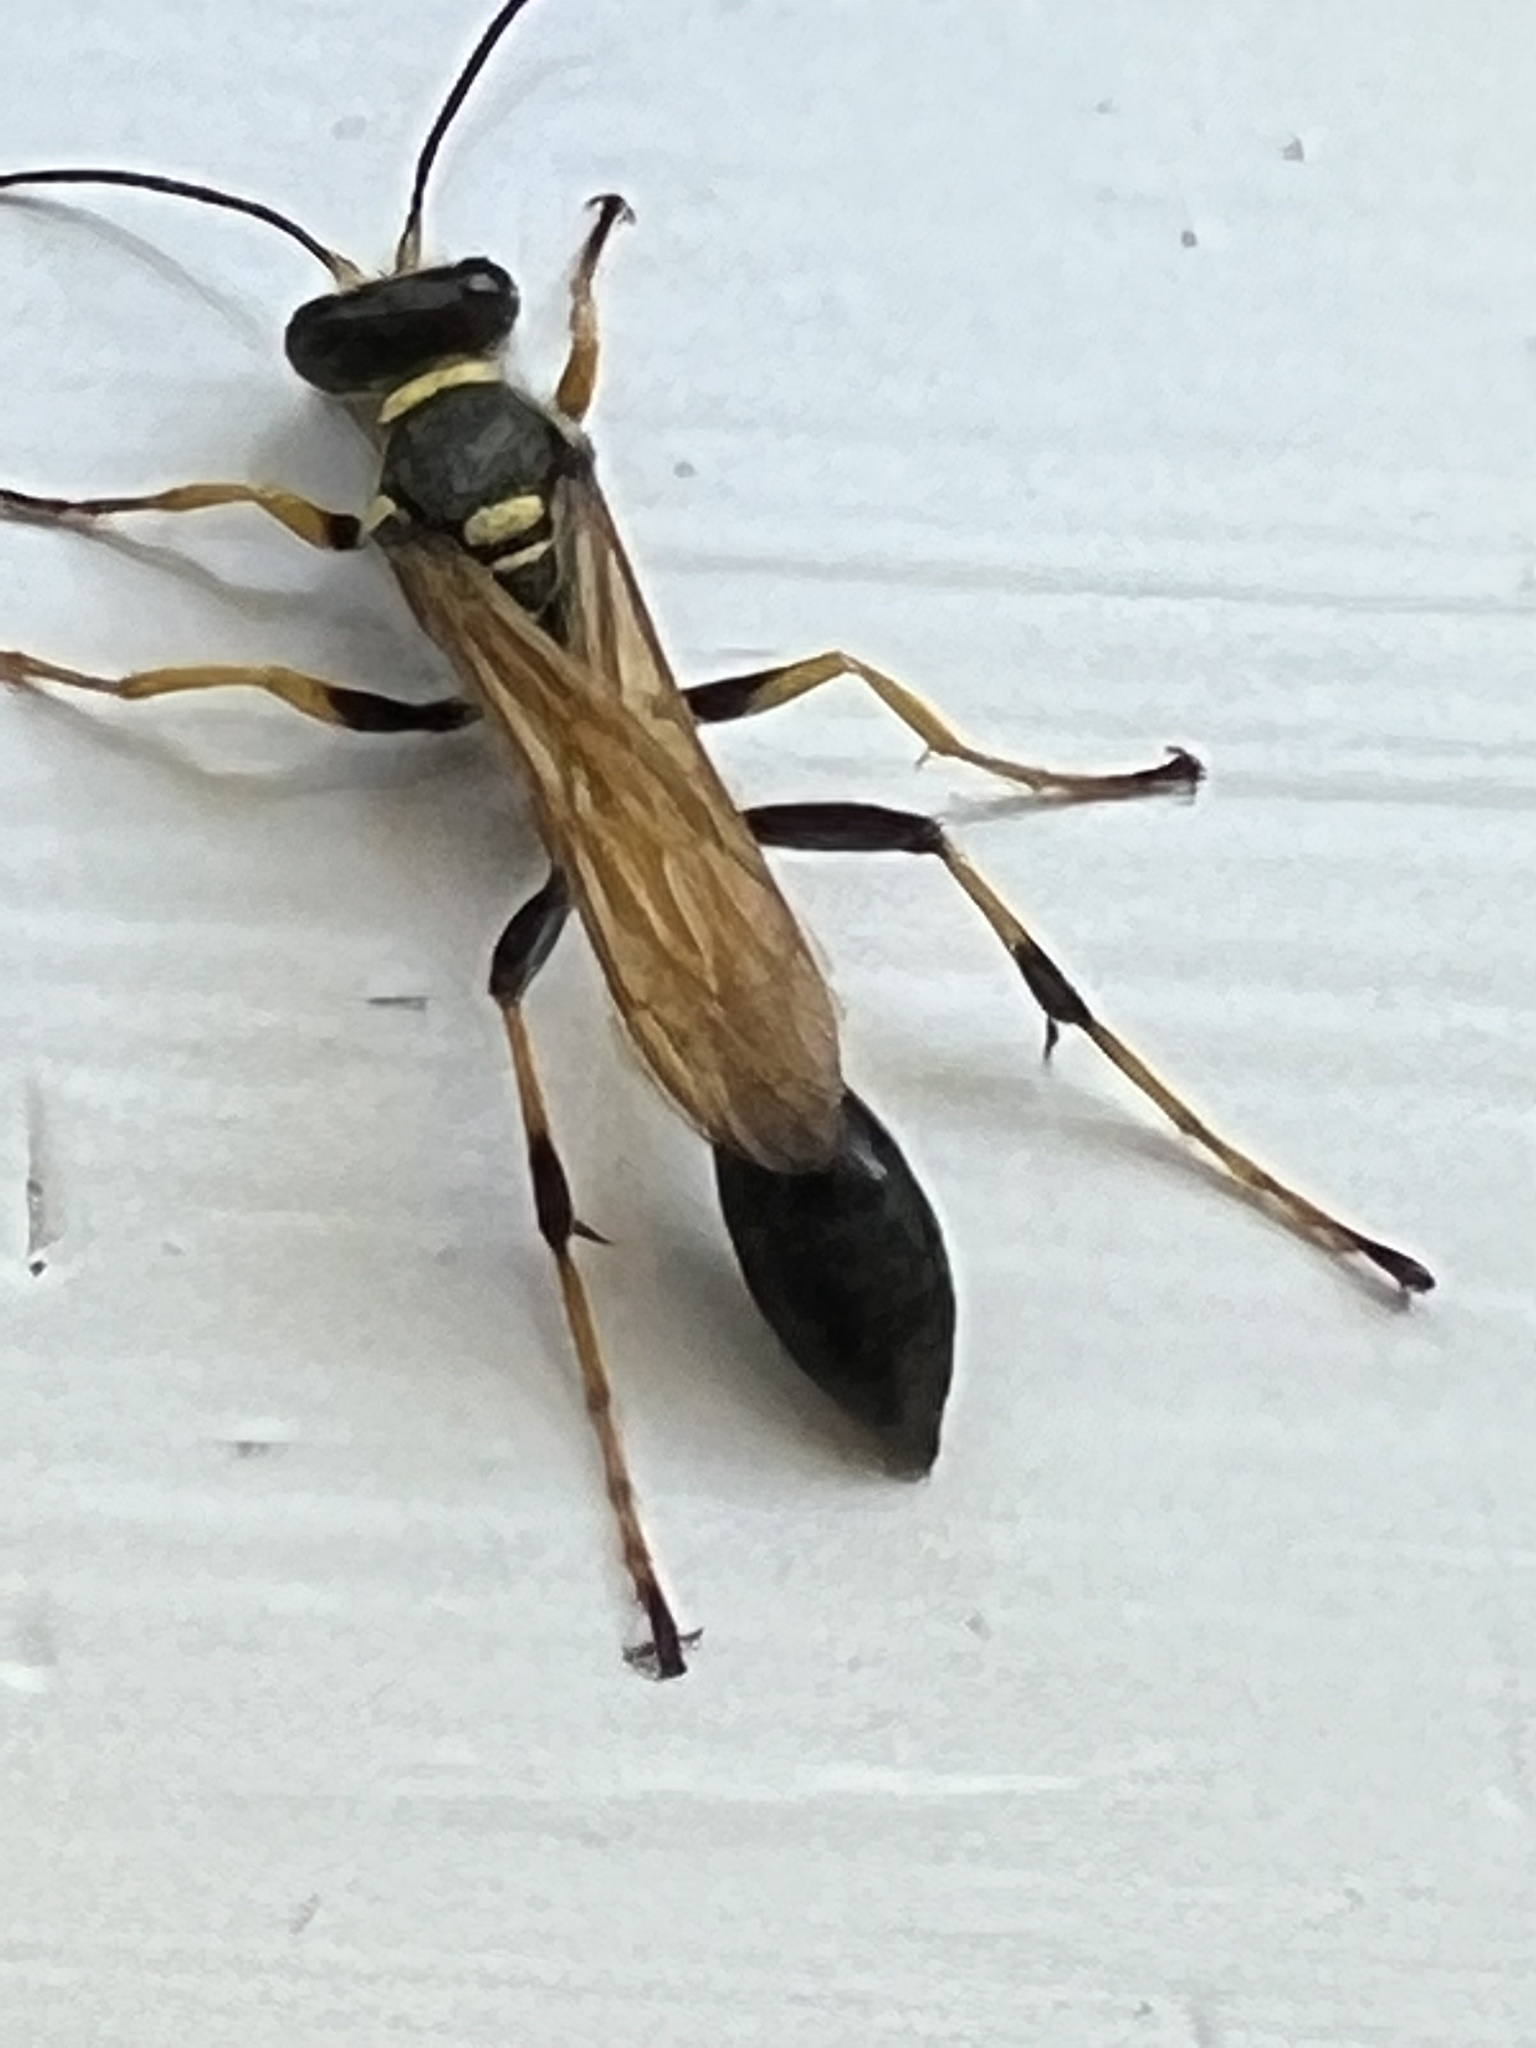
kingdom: Animalia
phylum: Arthropoda
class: Insecta
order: Hymenoptera
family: Sphecidae
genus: Sceliphron
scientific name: Sceliphron caementarium
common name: Mud dauber
